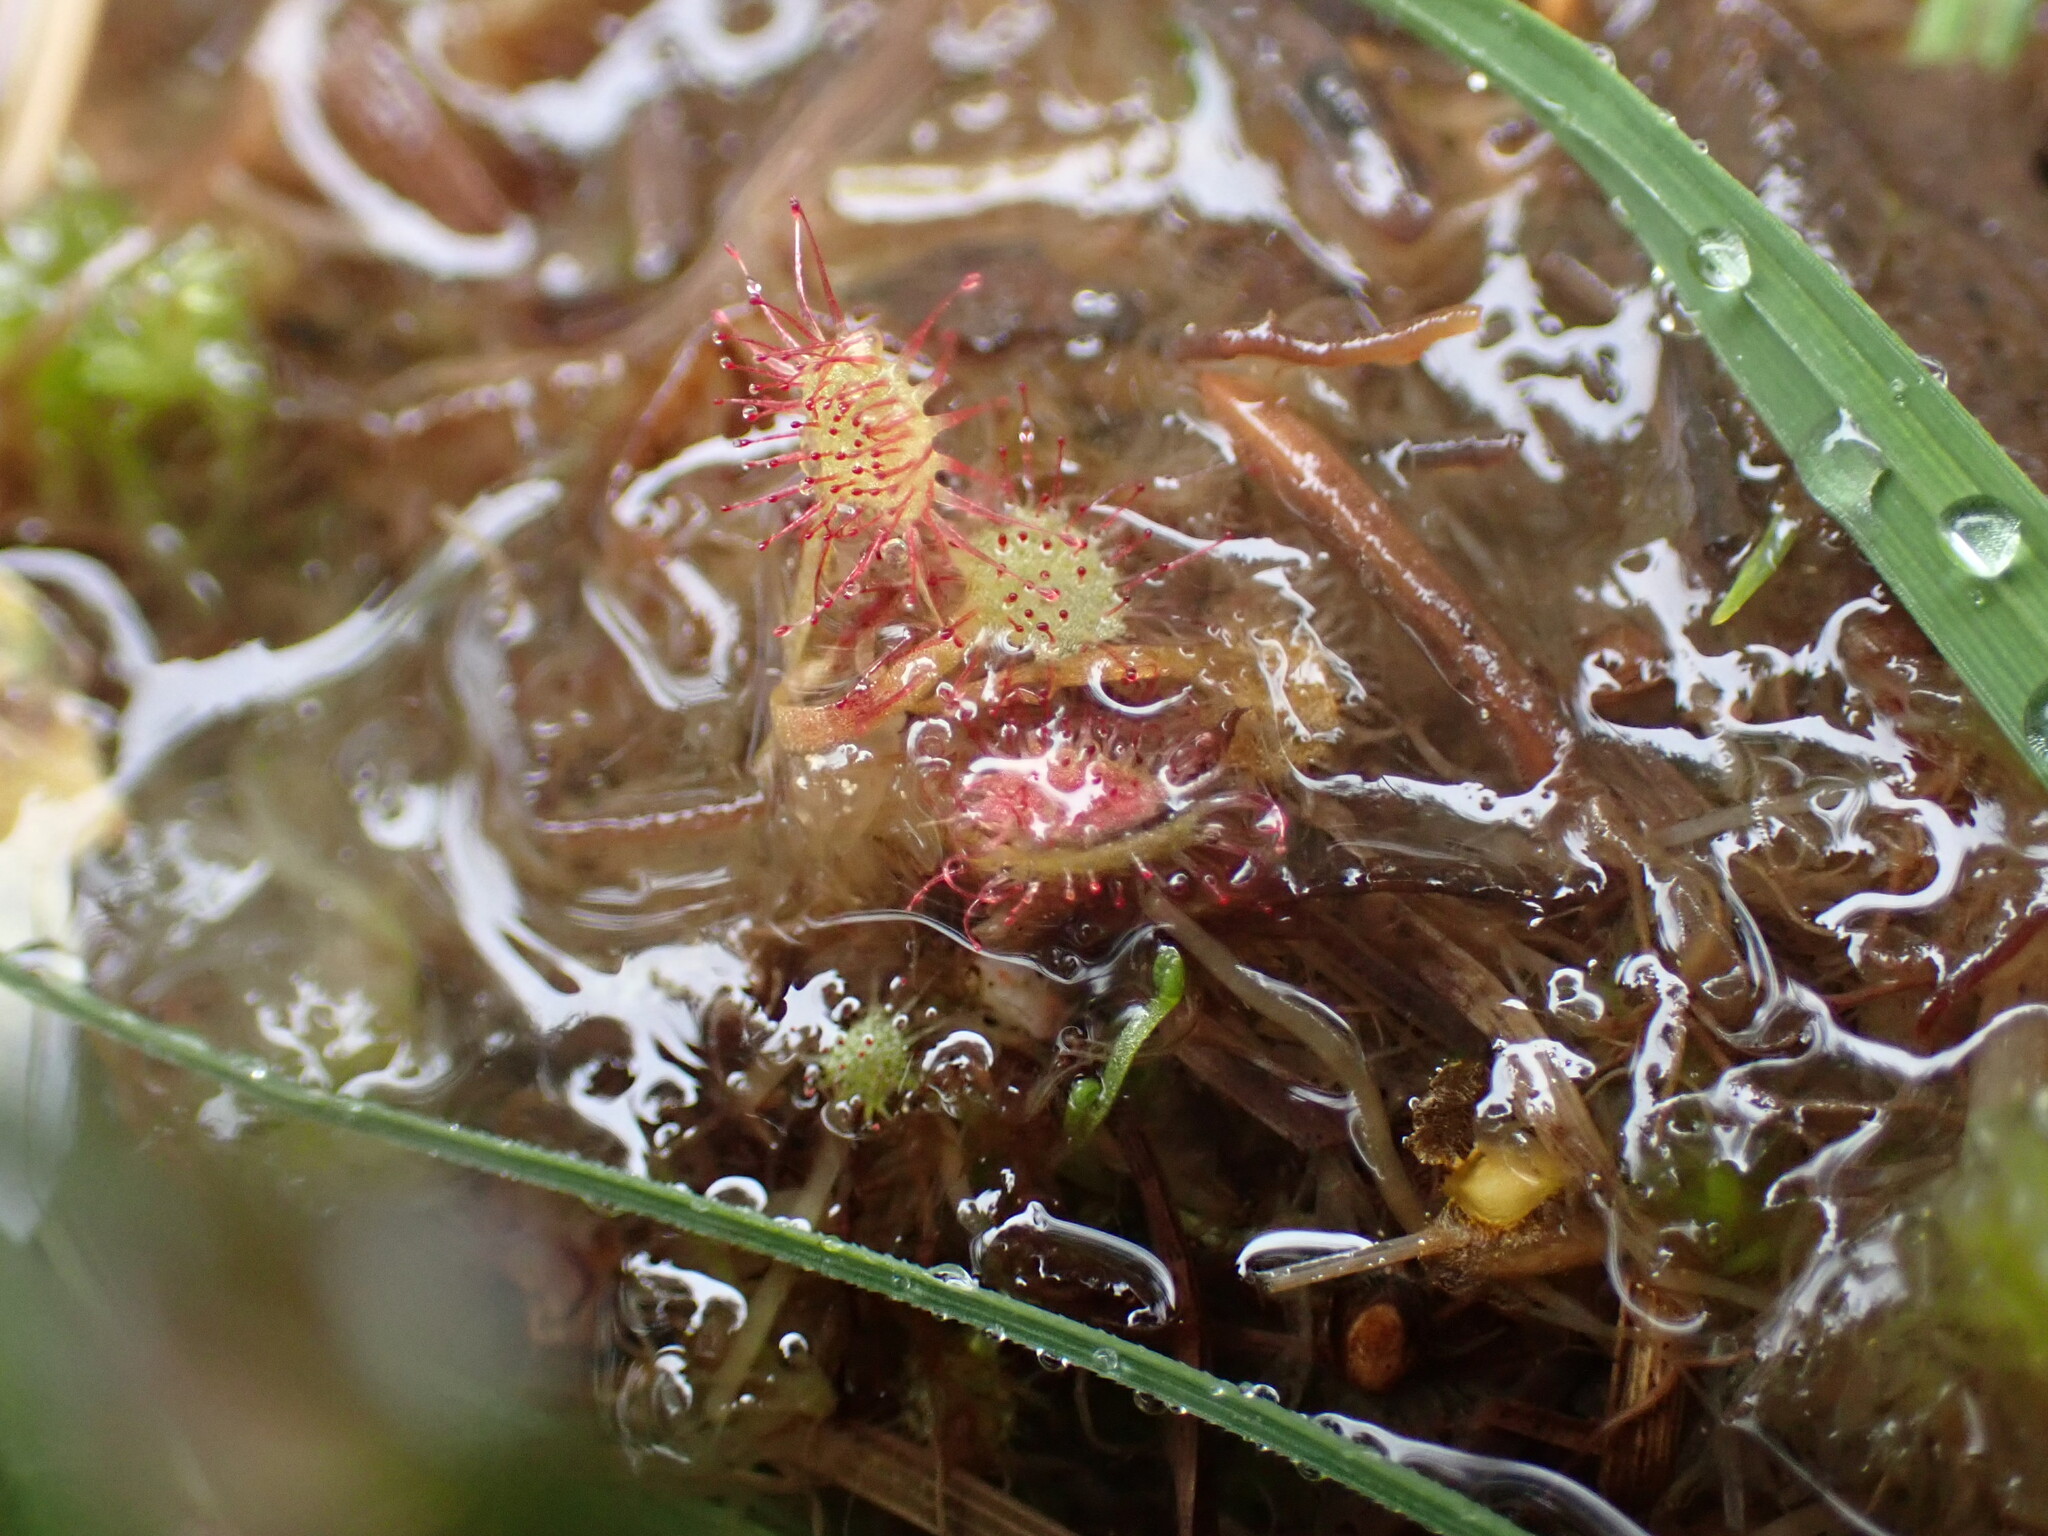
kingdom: Plantae
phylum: Tracheophyta
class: Magnoliopsida
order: Caryophyllales
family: Droseraceae
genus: Drosera
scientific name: Drosera rotundifolia
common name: Round-leaved sundew
